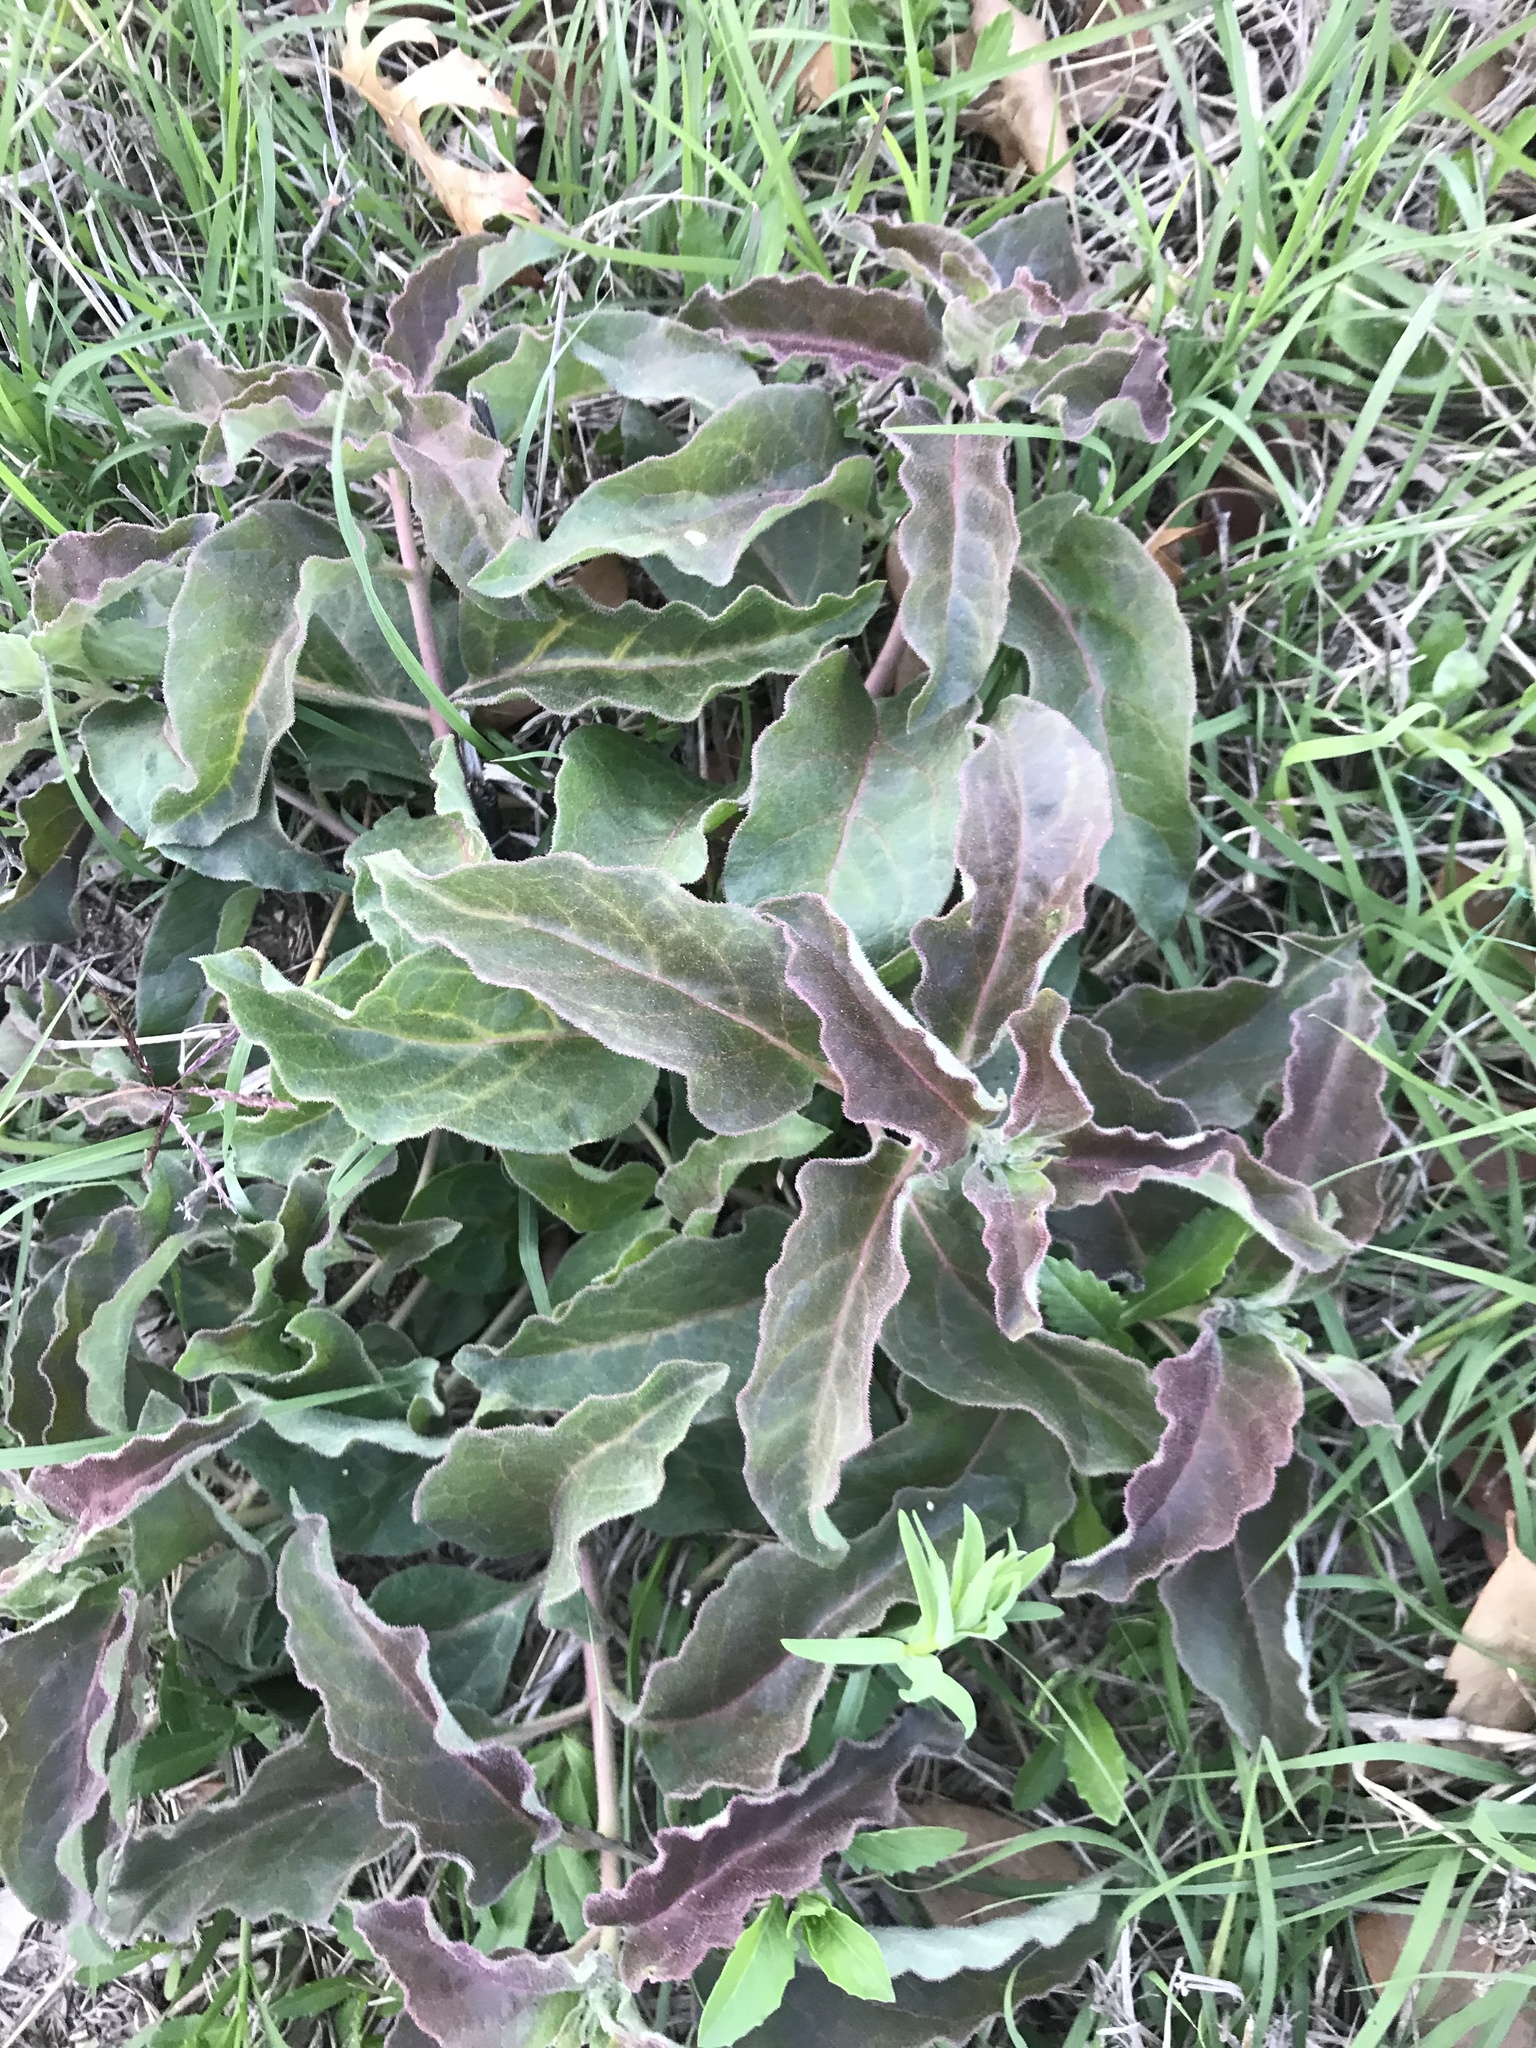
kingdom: Plantae
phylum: Tracheophyta
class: Magnoliopsida
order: Gentianales
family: Apocynaceae
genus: Asclepias
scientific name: Asclepias oenotheroides
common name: Zizotes milkweed
